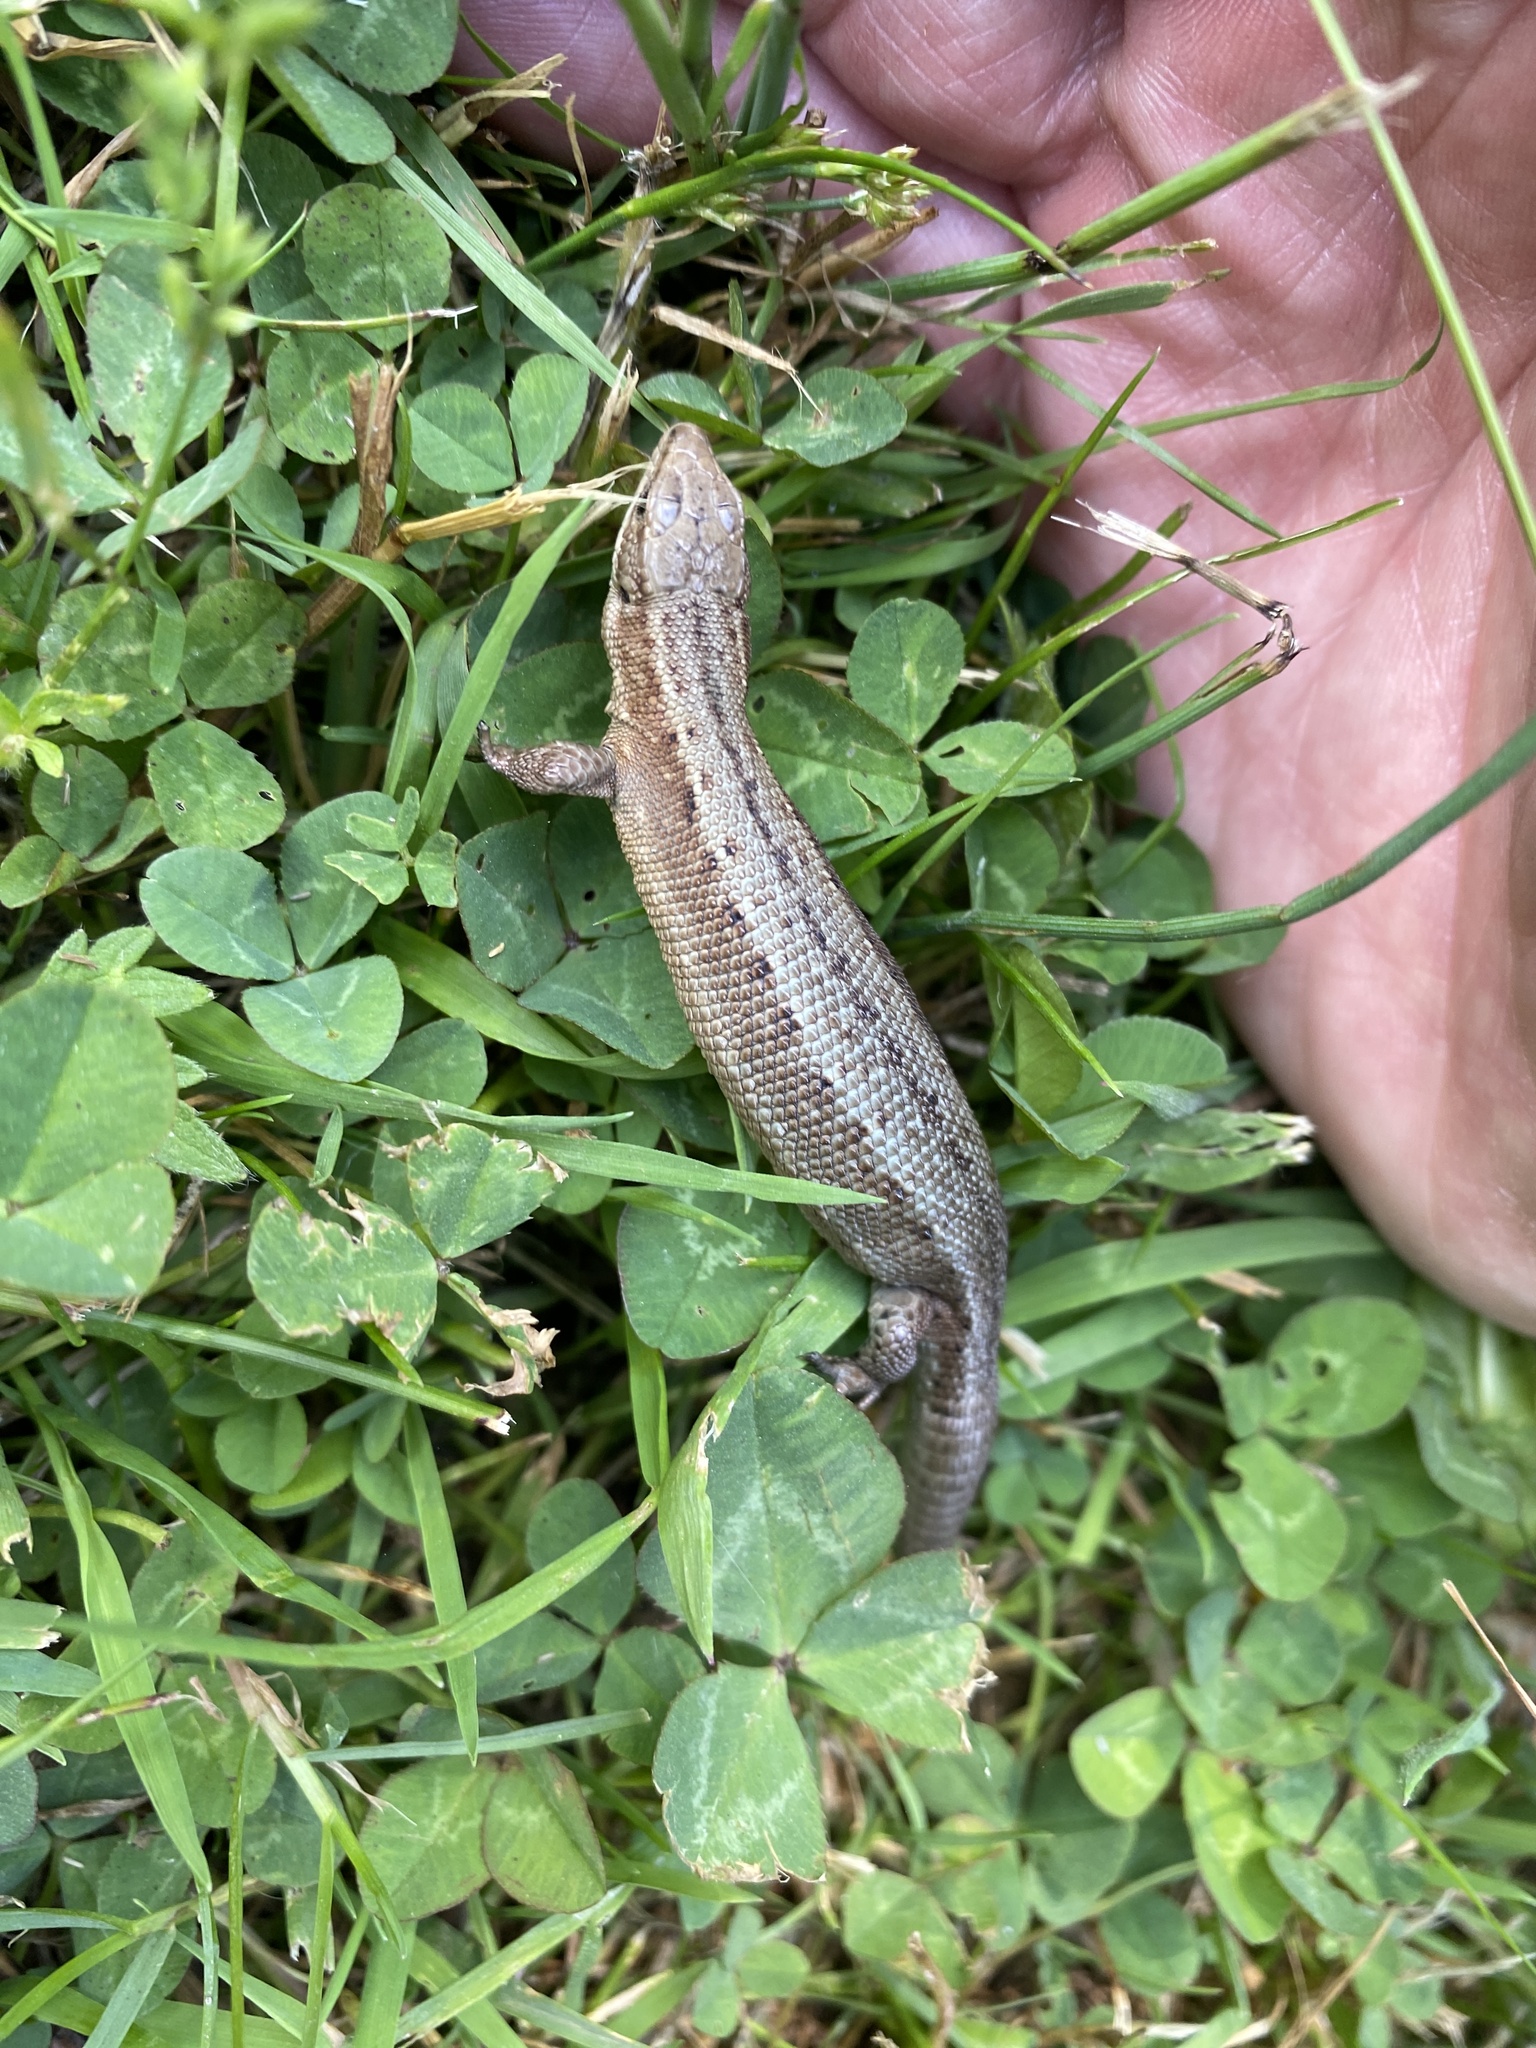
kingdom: Animalia
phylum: Chordata
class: Squamata
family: Lacertidae
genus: Zootoca
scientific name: Zootoca vivipara
